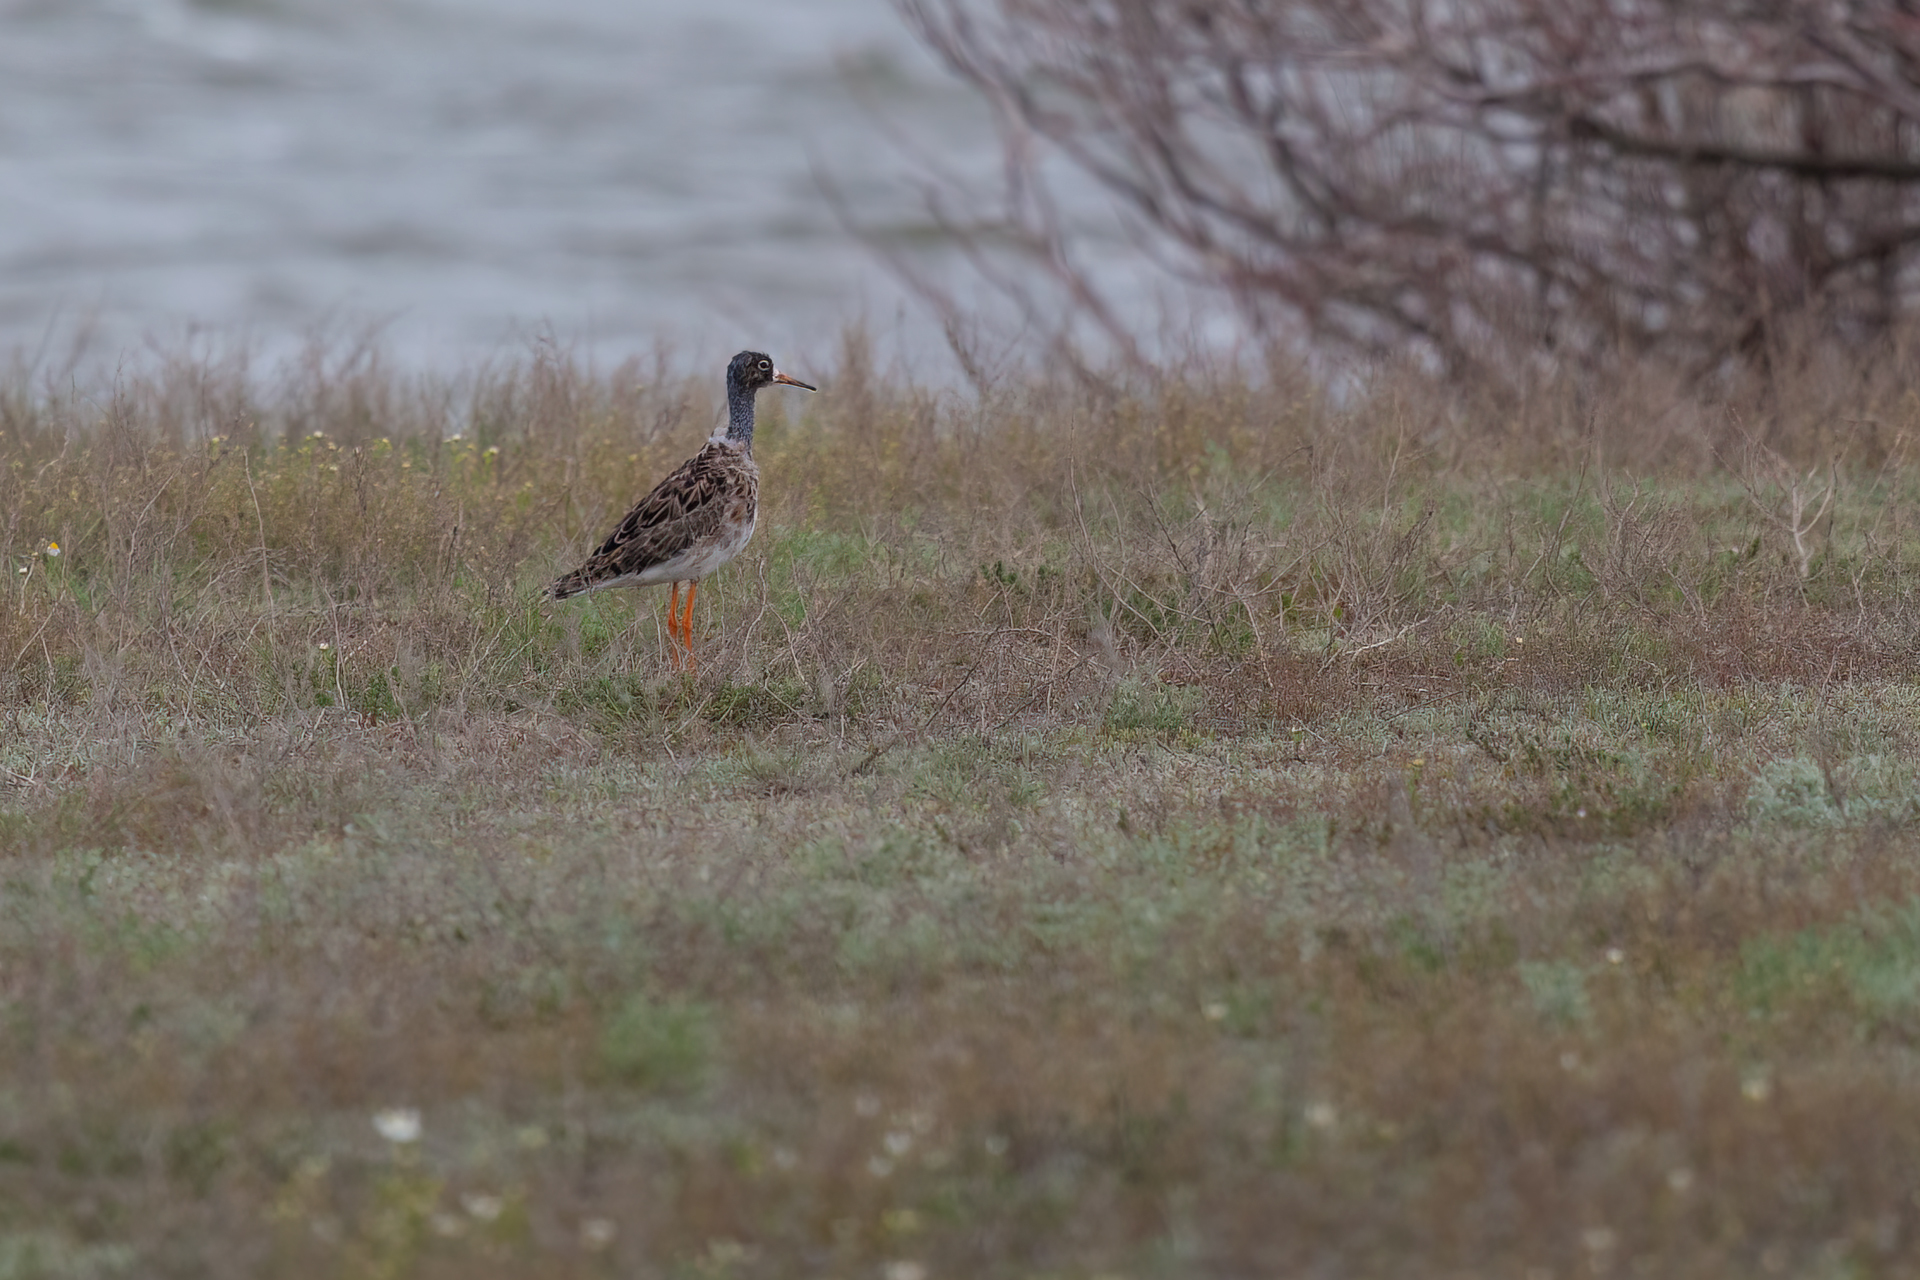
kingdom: Animalia
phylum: Chordata
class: Aves
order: Charadriiformes
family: Scolopacidae
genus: Calidris
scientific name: Calidris pugnax
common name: Ruff
